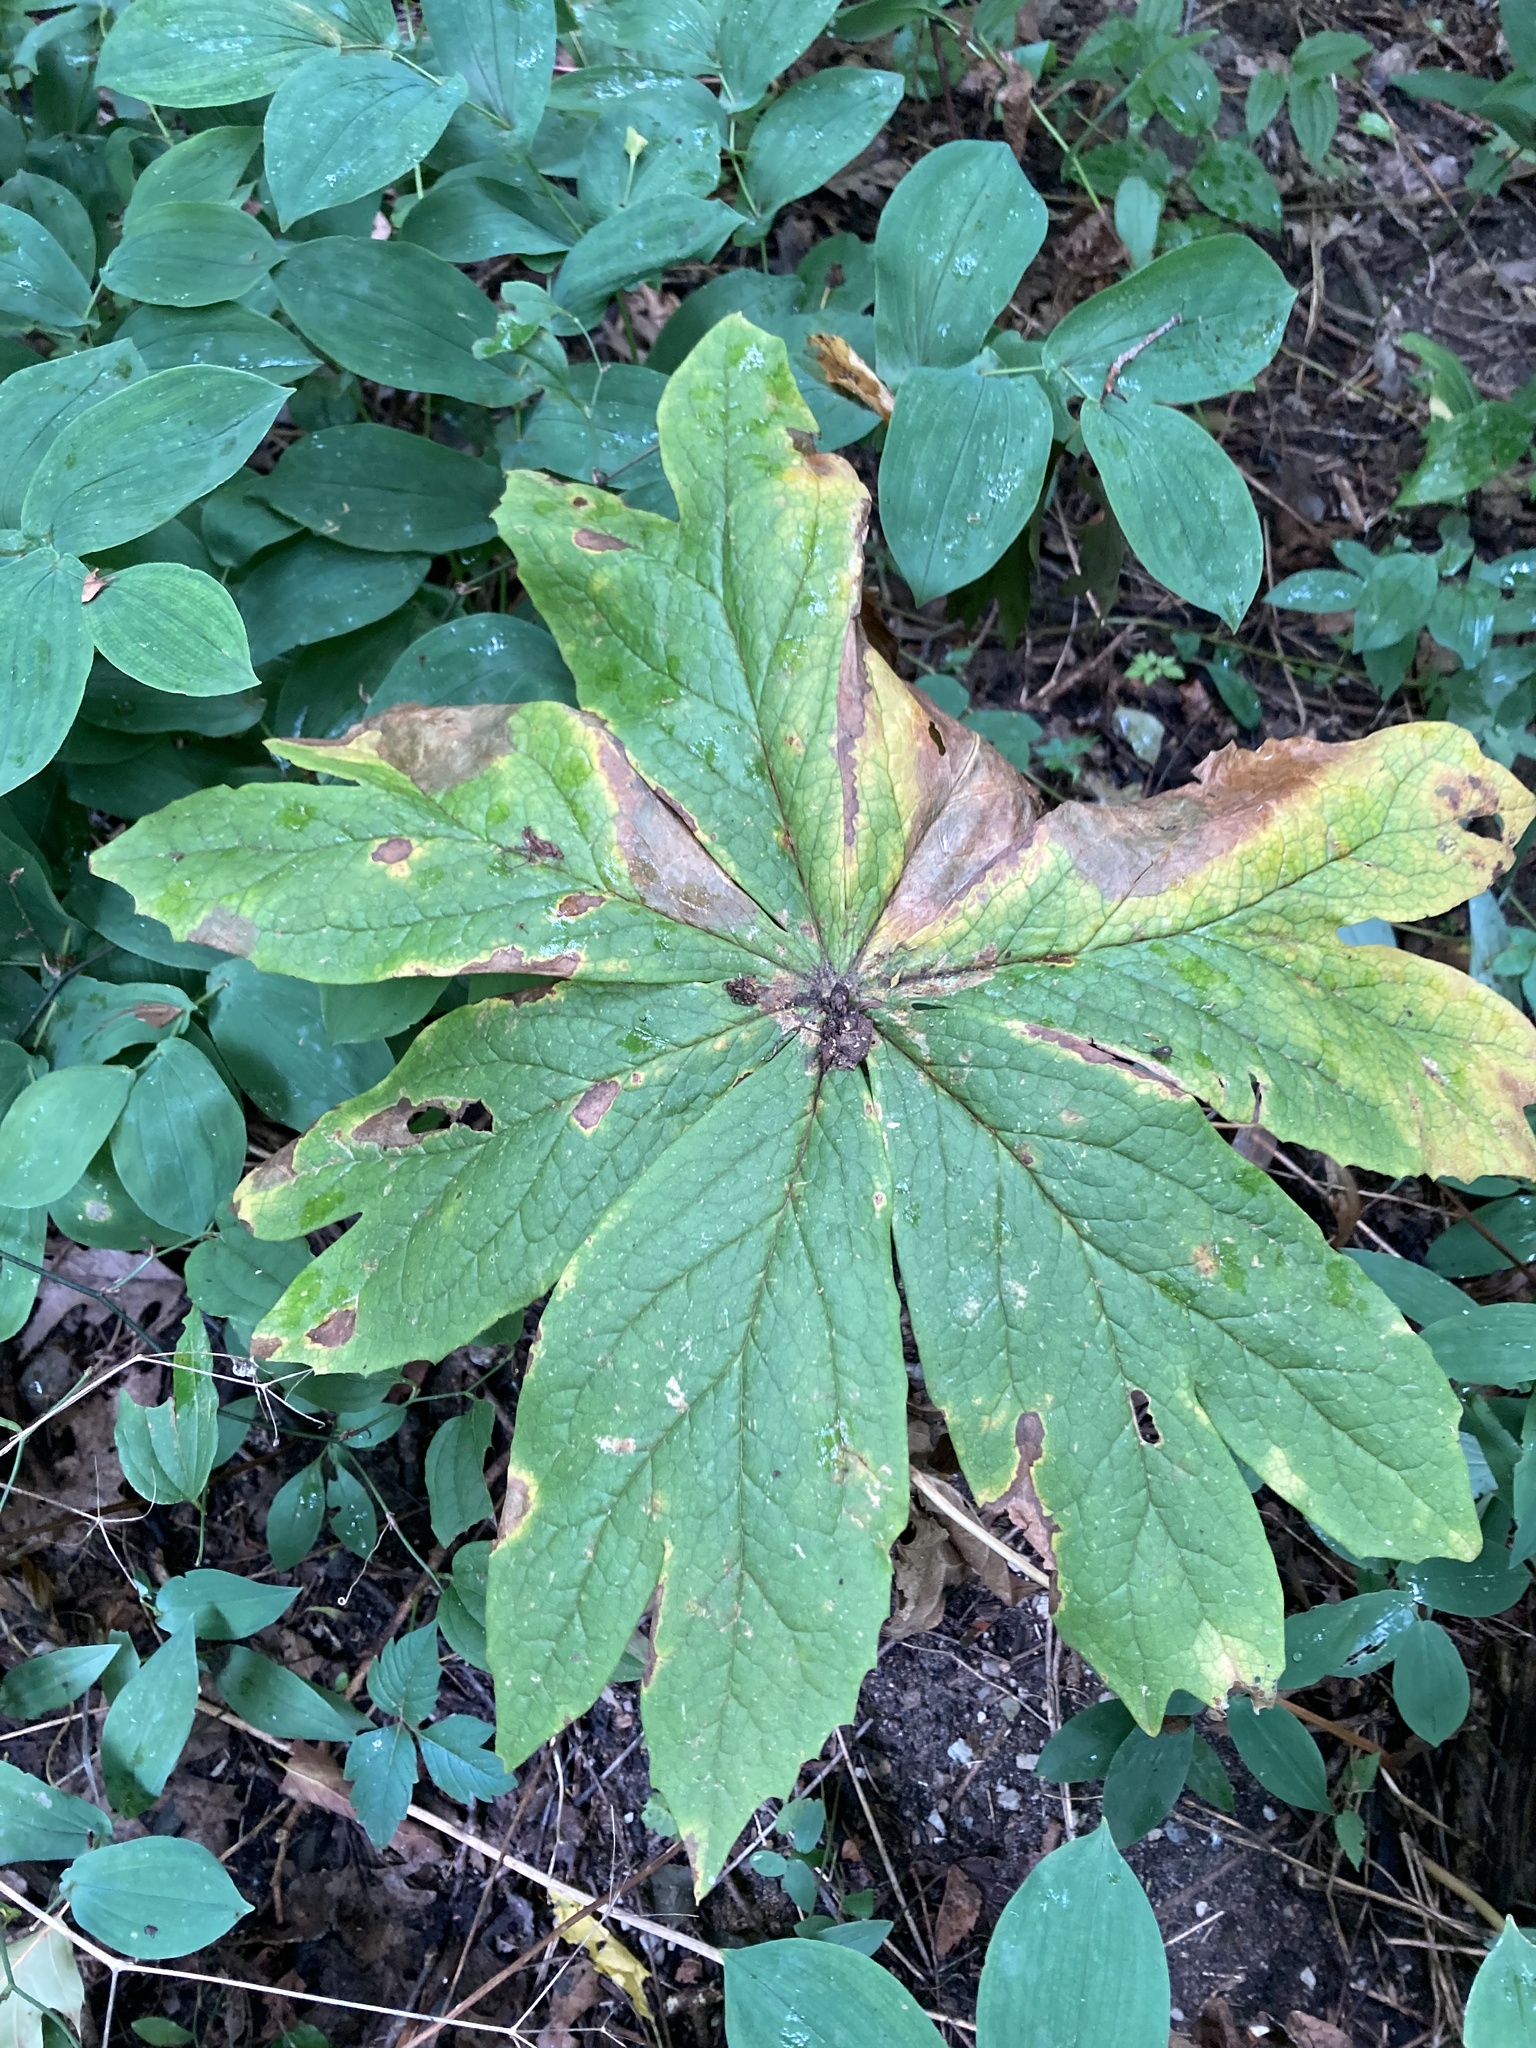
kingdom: Plantae
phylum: Tracheophyta
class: Magnoliopsida
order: Ranunculales
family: Berberidaceae
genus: Podophyllum
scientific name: Podophyllum peltatum
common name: Wild mandrake
